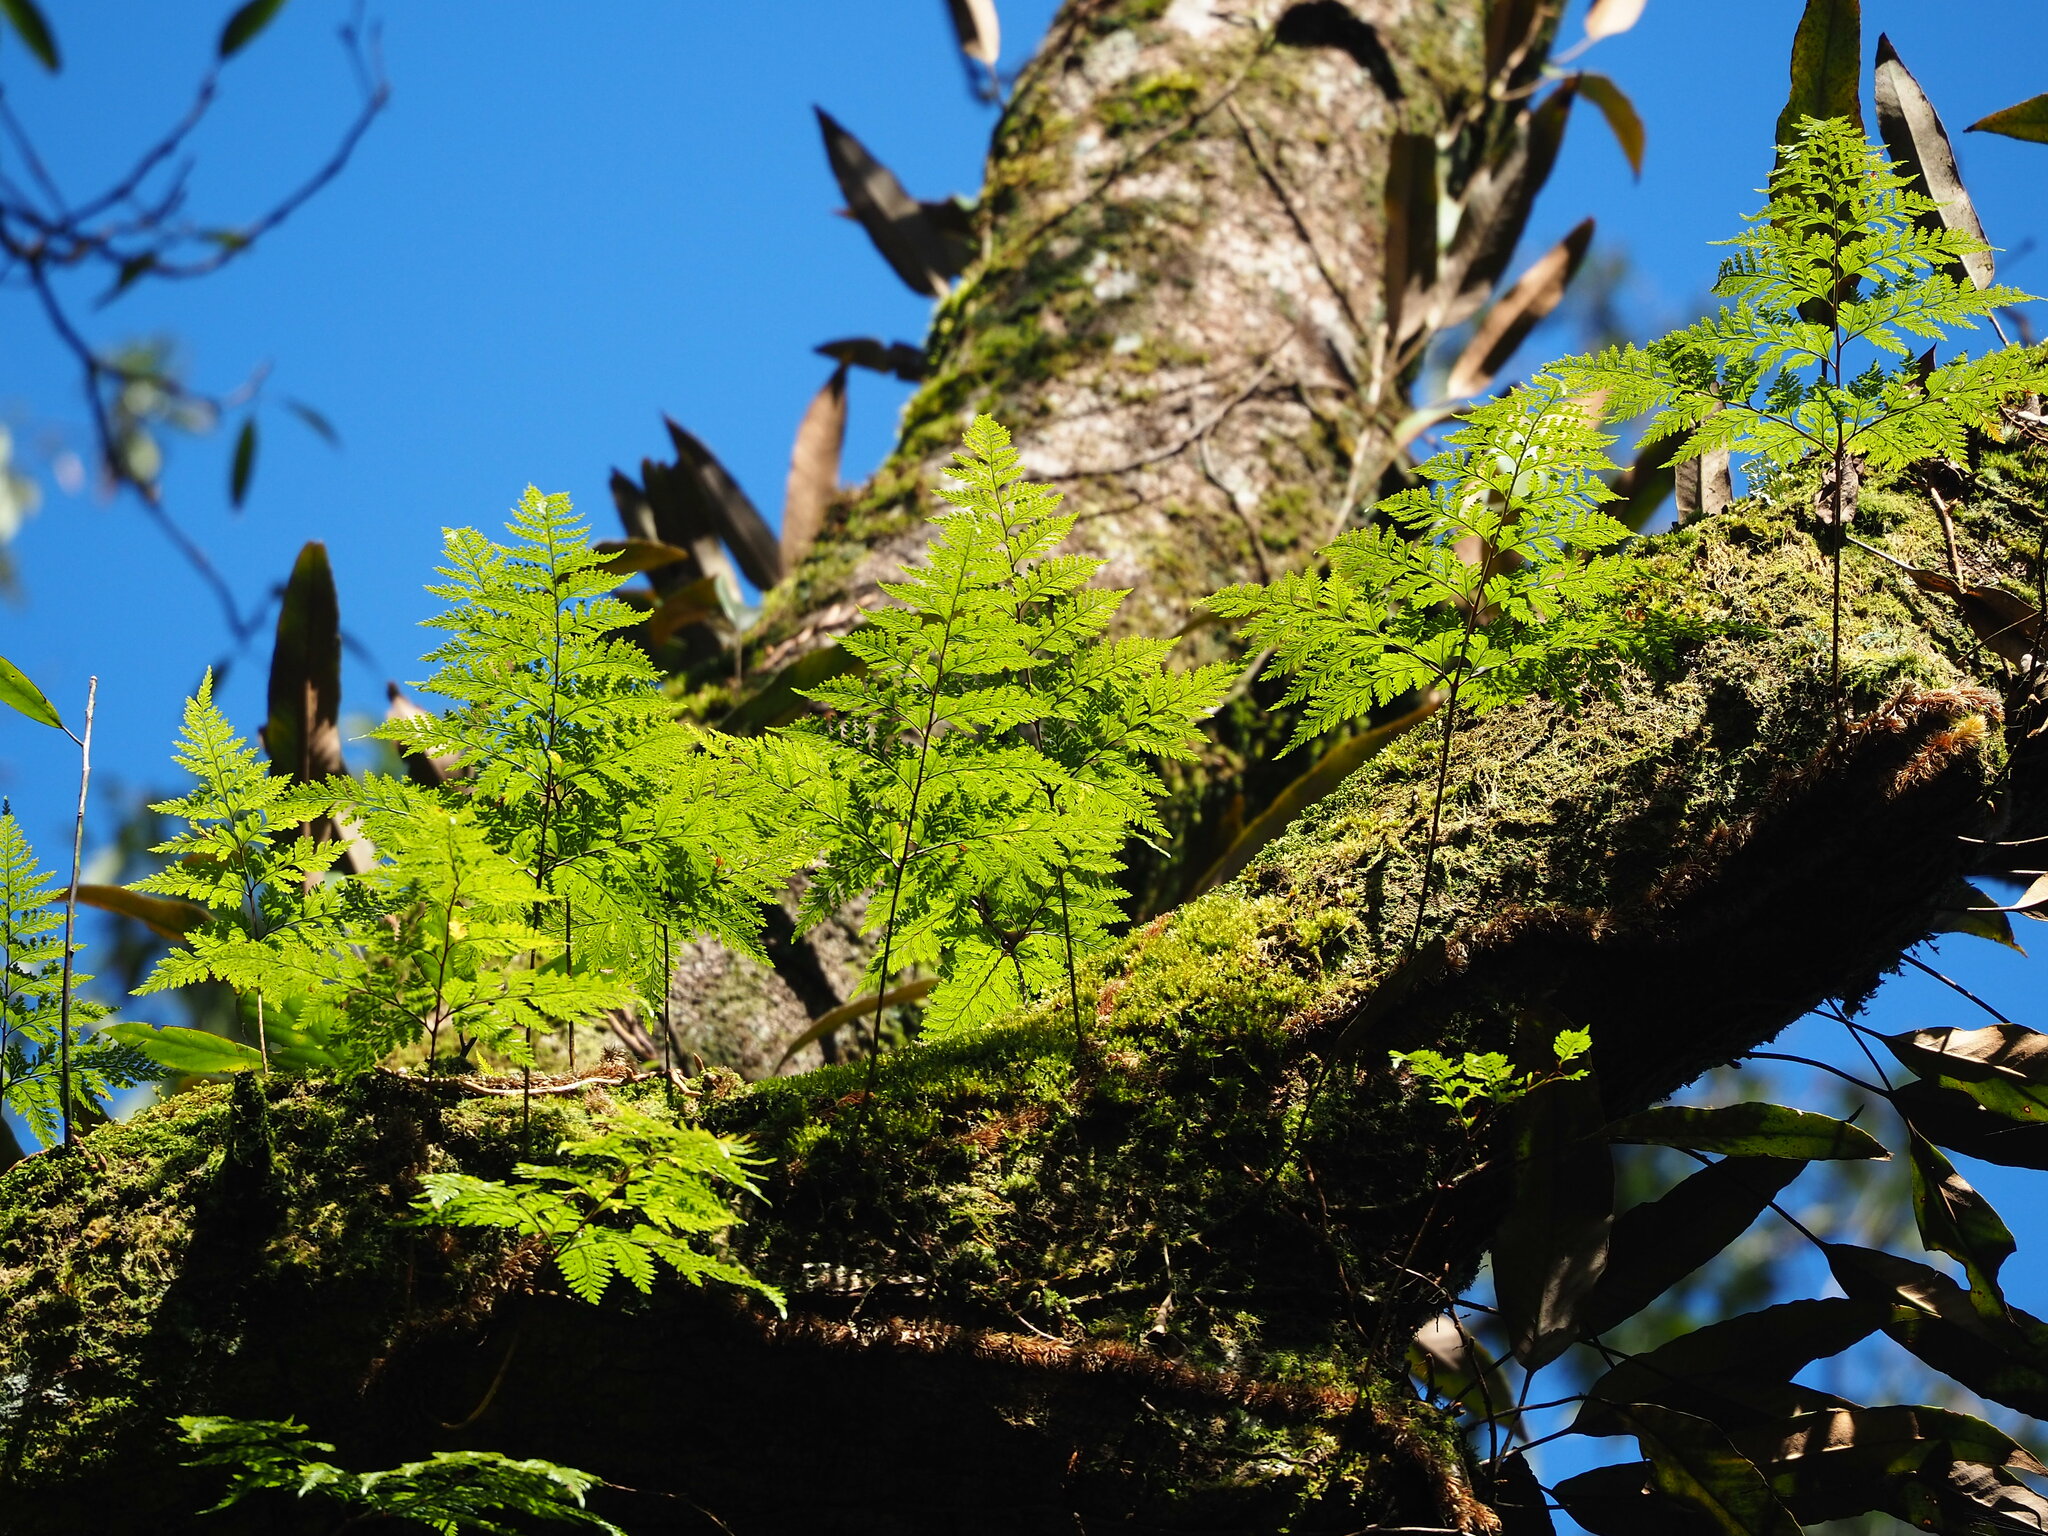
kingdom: Plantae
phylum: Tracheophyta
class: Polypodiopsida
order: Polypodiales
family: Davalliaceae
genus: Davallia
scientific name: Davallia trichomanoides
